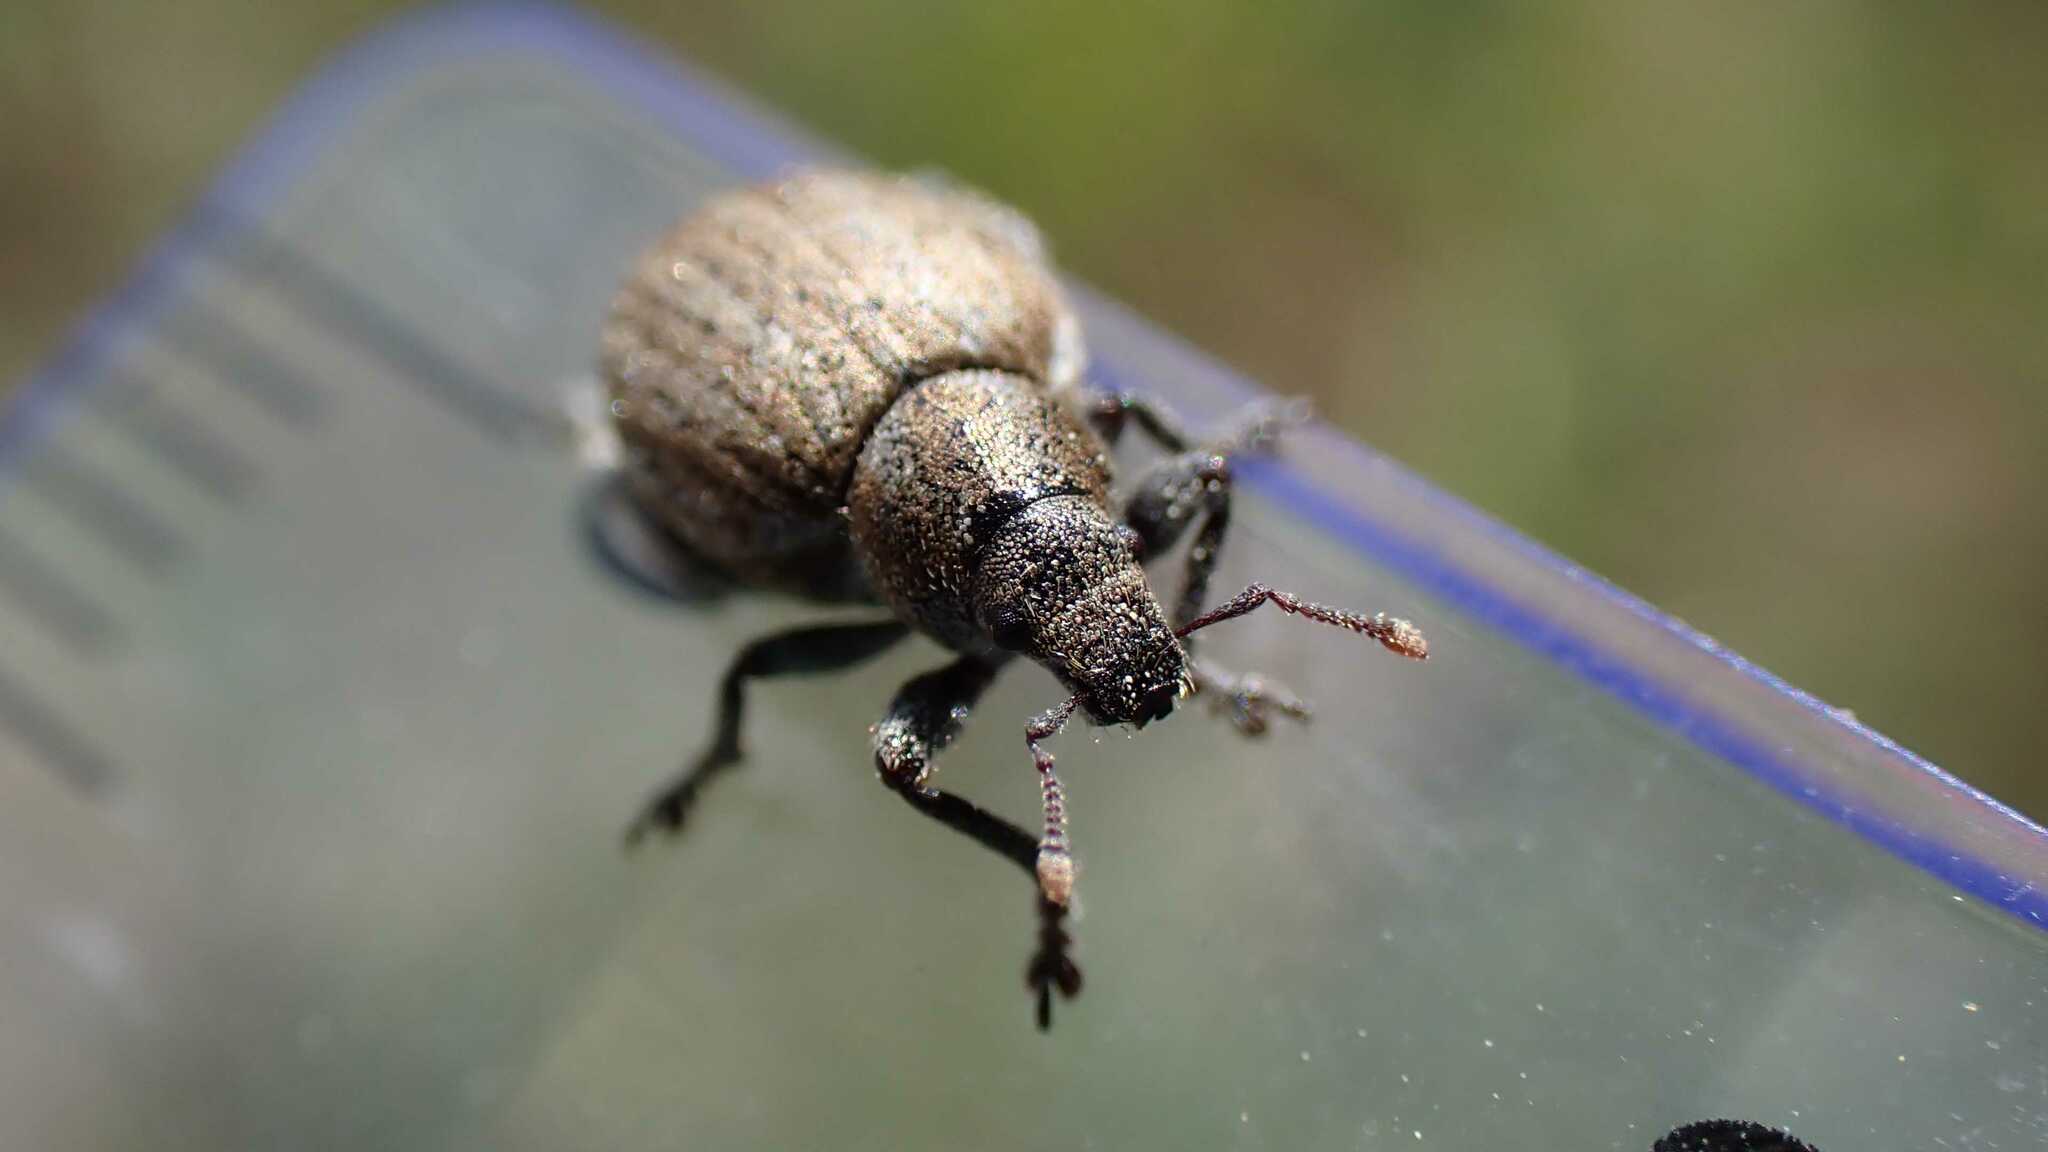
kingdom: Animalia
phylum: Arthropoda
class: Insecta
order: Coleoptera
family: Curculionidae
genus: Philopedon
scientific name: Philopedon plagiatum
